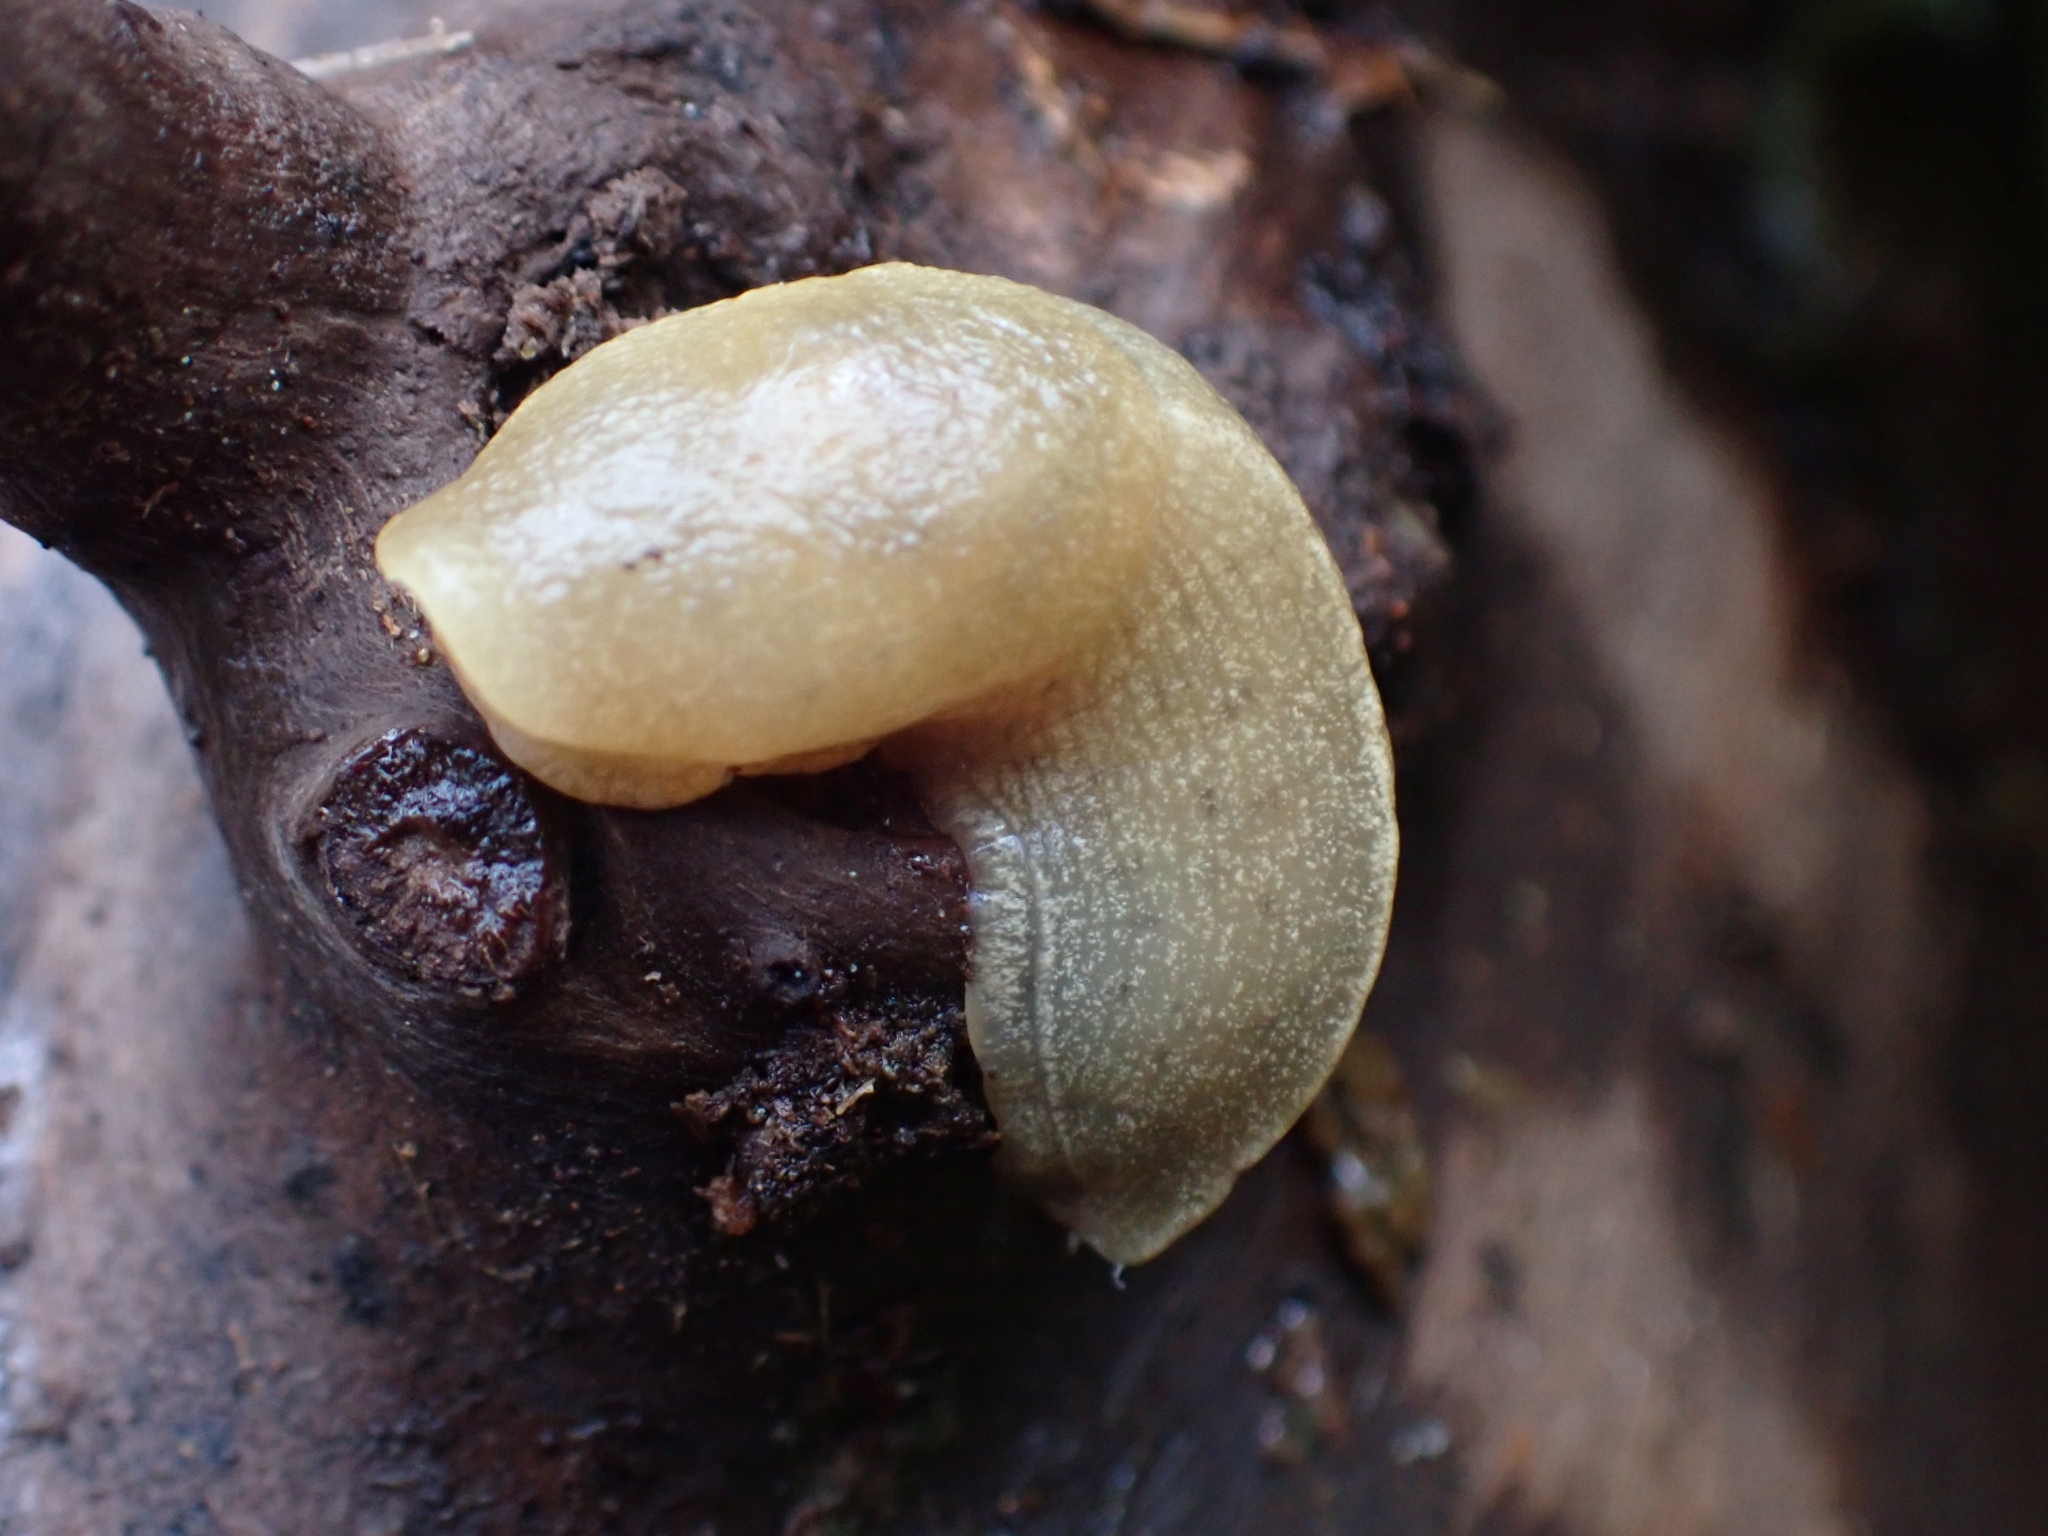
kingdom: Animalia
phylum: Mollusca
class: Gastropoda
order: Stylommatophora
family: Ariolimacidae
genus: Ariolimax
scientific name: Ariolimax columbianus
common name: Pacific banana slug
